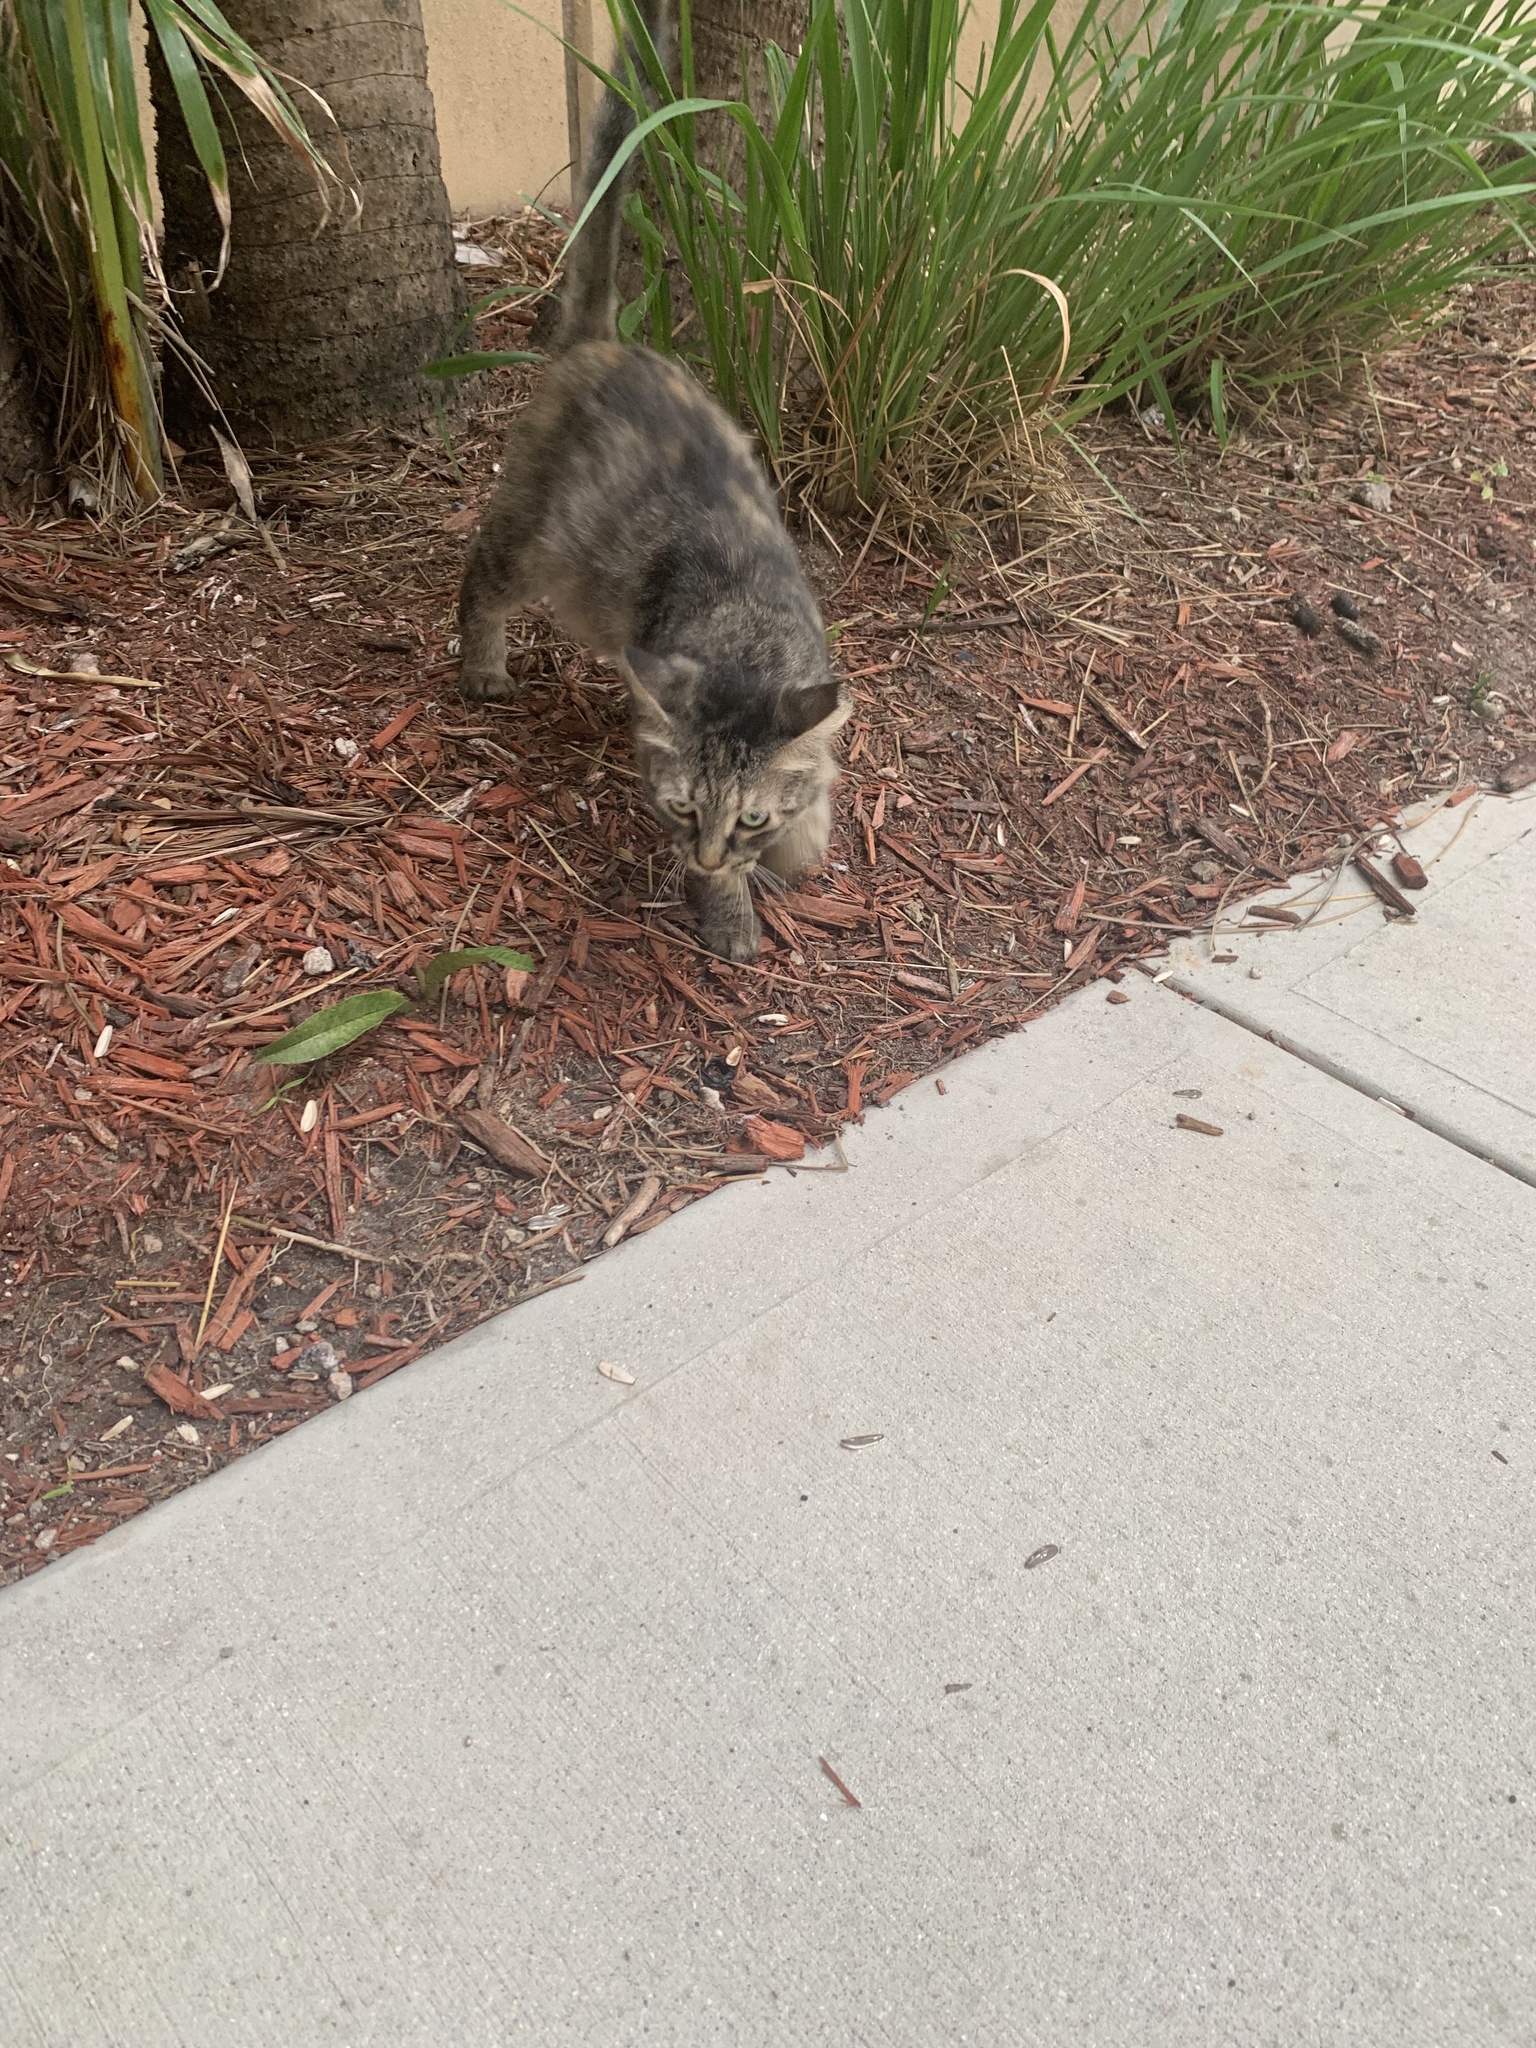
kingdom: Animalia
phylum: Chordata
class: Mammalia
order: Carnivora
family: Felidae
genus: Felis
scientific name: Felis catus
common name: Domestic cat
